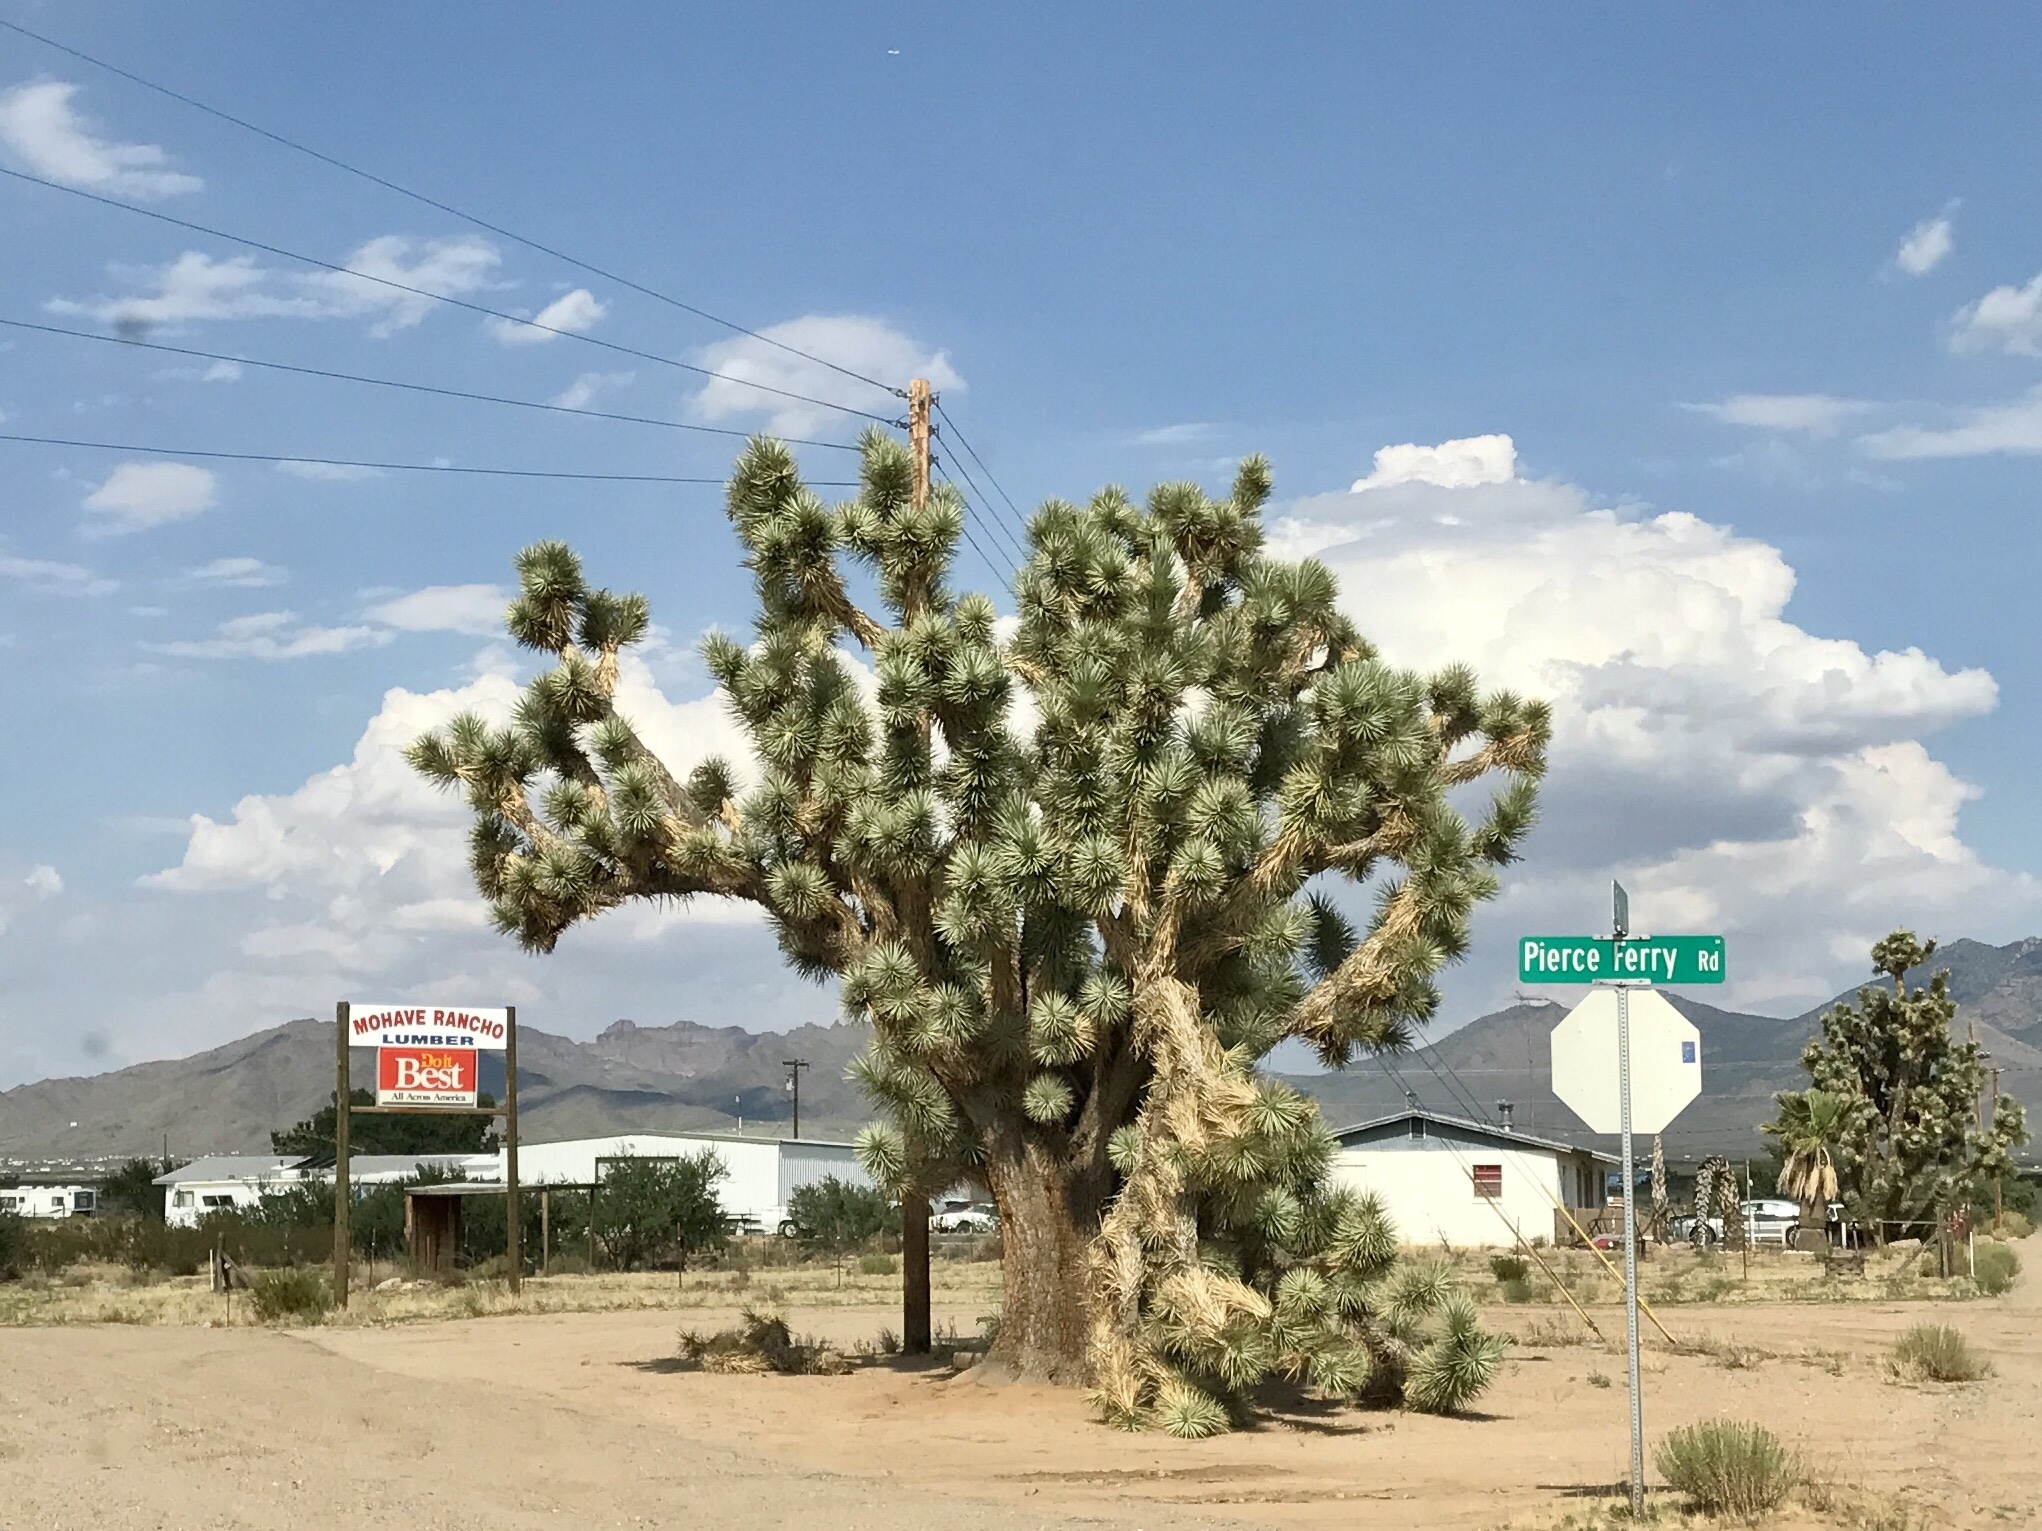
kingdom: Plantae
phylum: Tracheophyta
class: Liliopsida
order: Asparagales
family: Asparagaceae
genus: Yucca
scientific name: Yucca brevifolia
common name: Joshua tree
